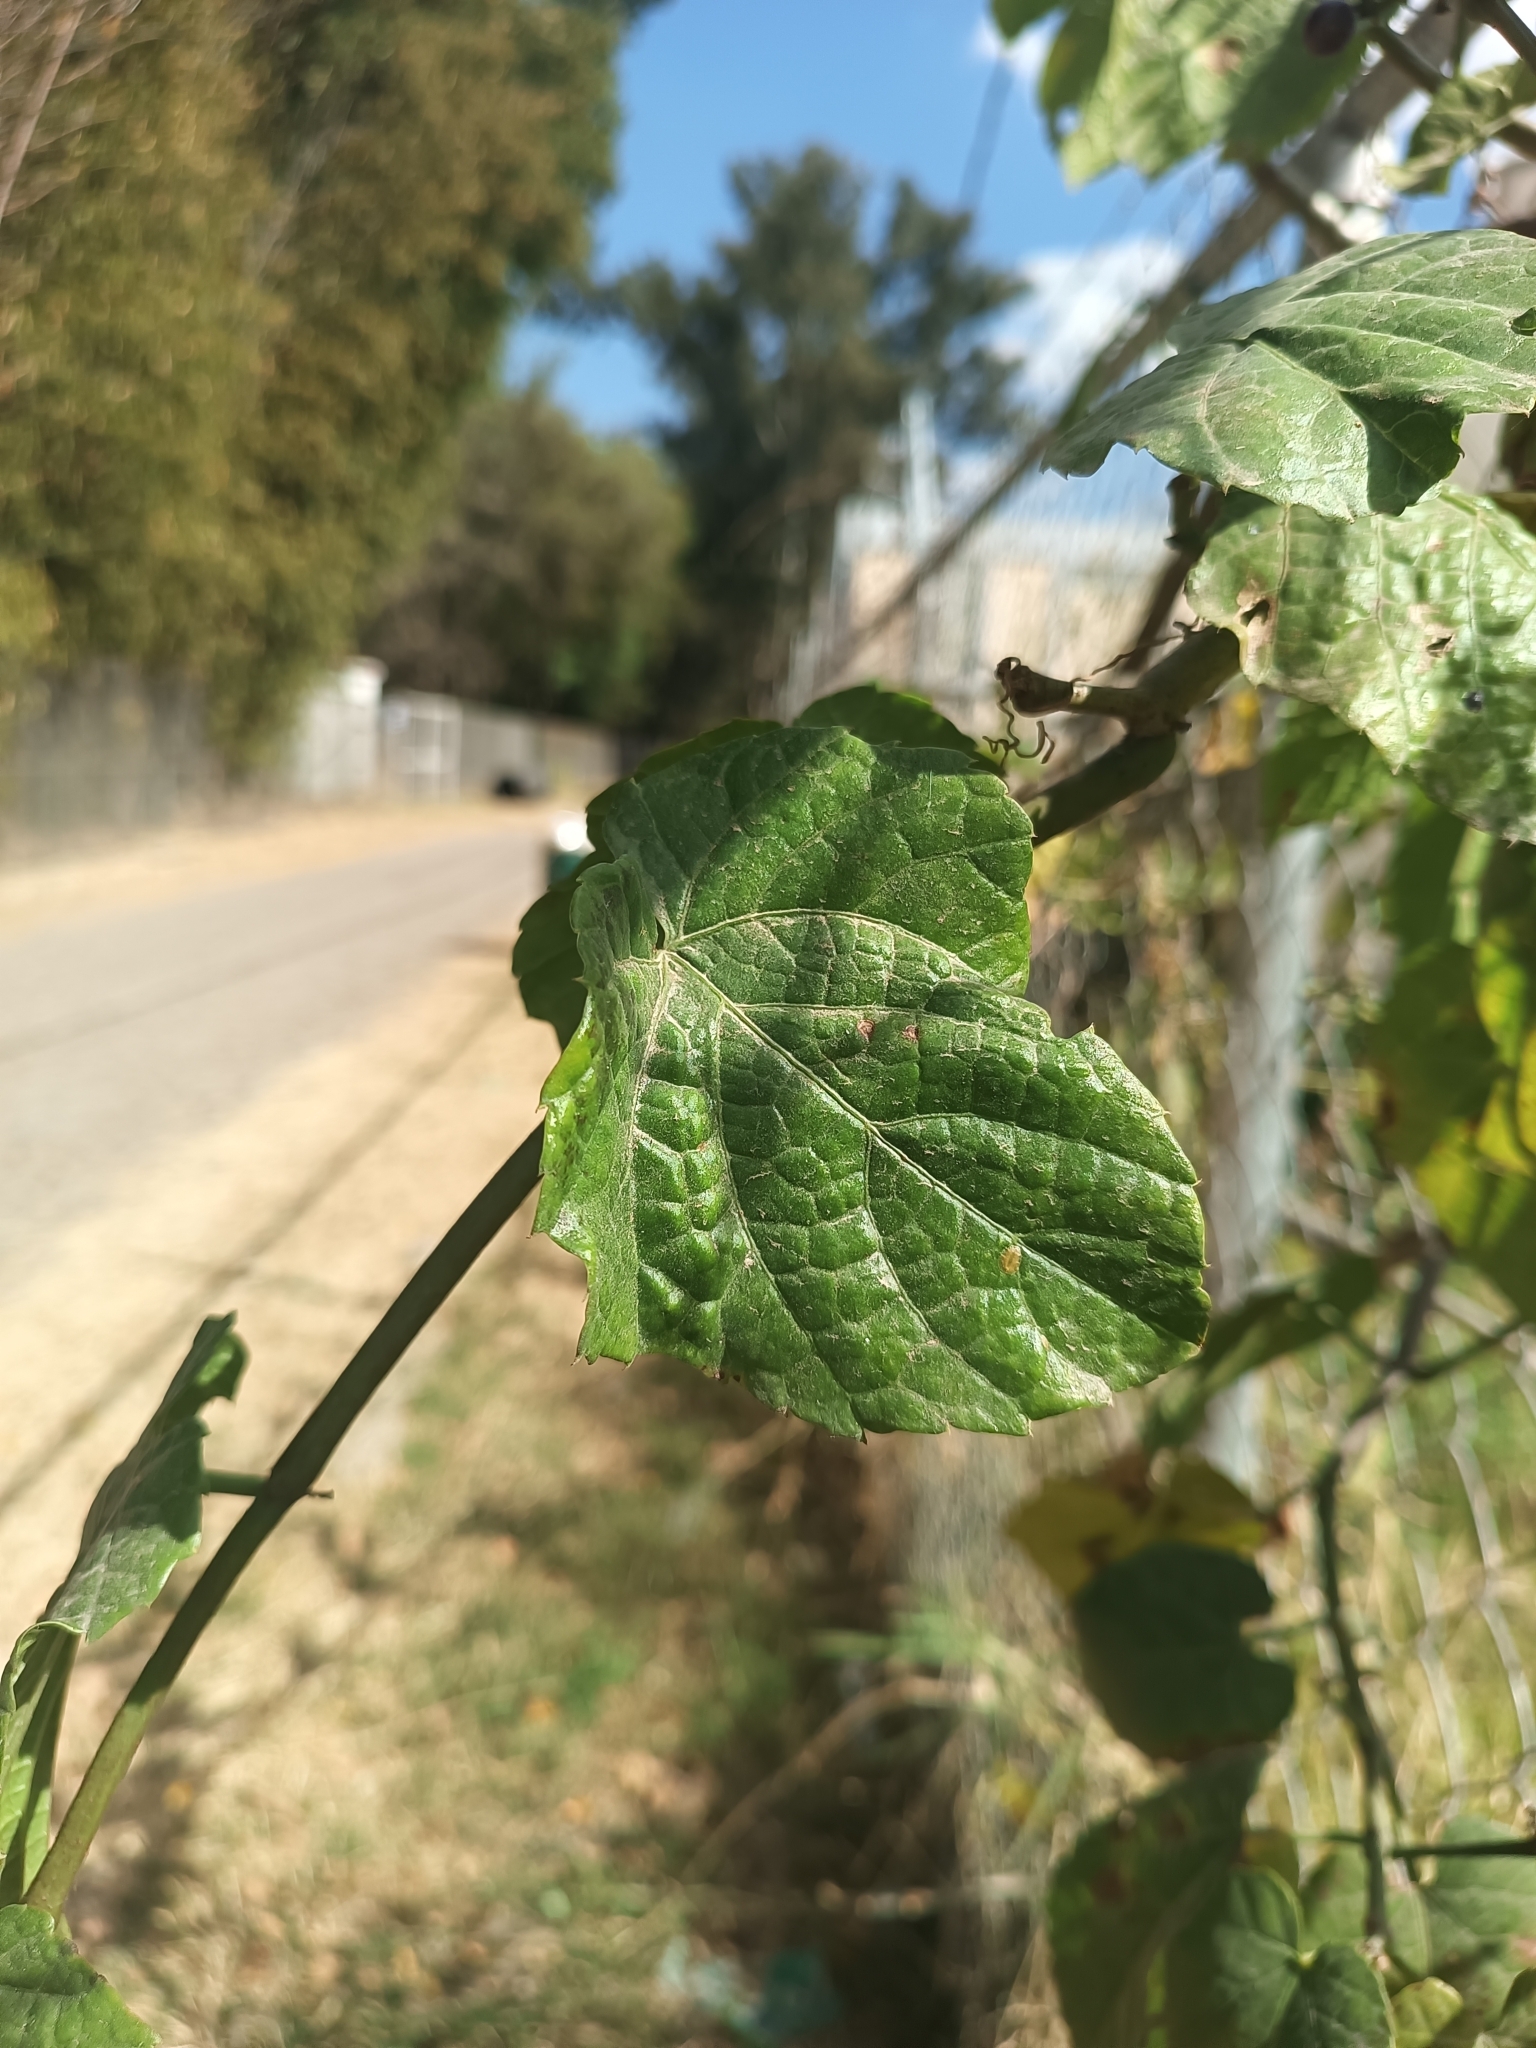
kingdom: Plantae
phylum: Tracheophyta
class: Magnoliopsida
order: Vitales
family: Vitaceae
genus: Cissus
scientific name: Cissus verticillata
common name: Princess vine
